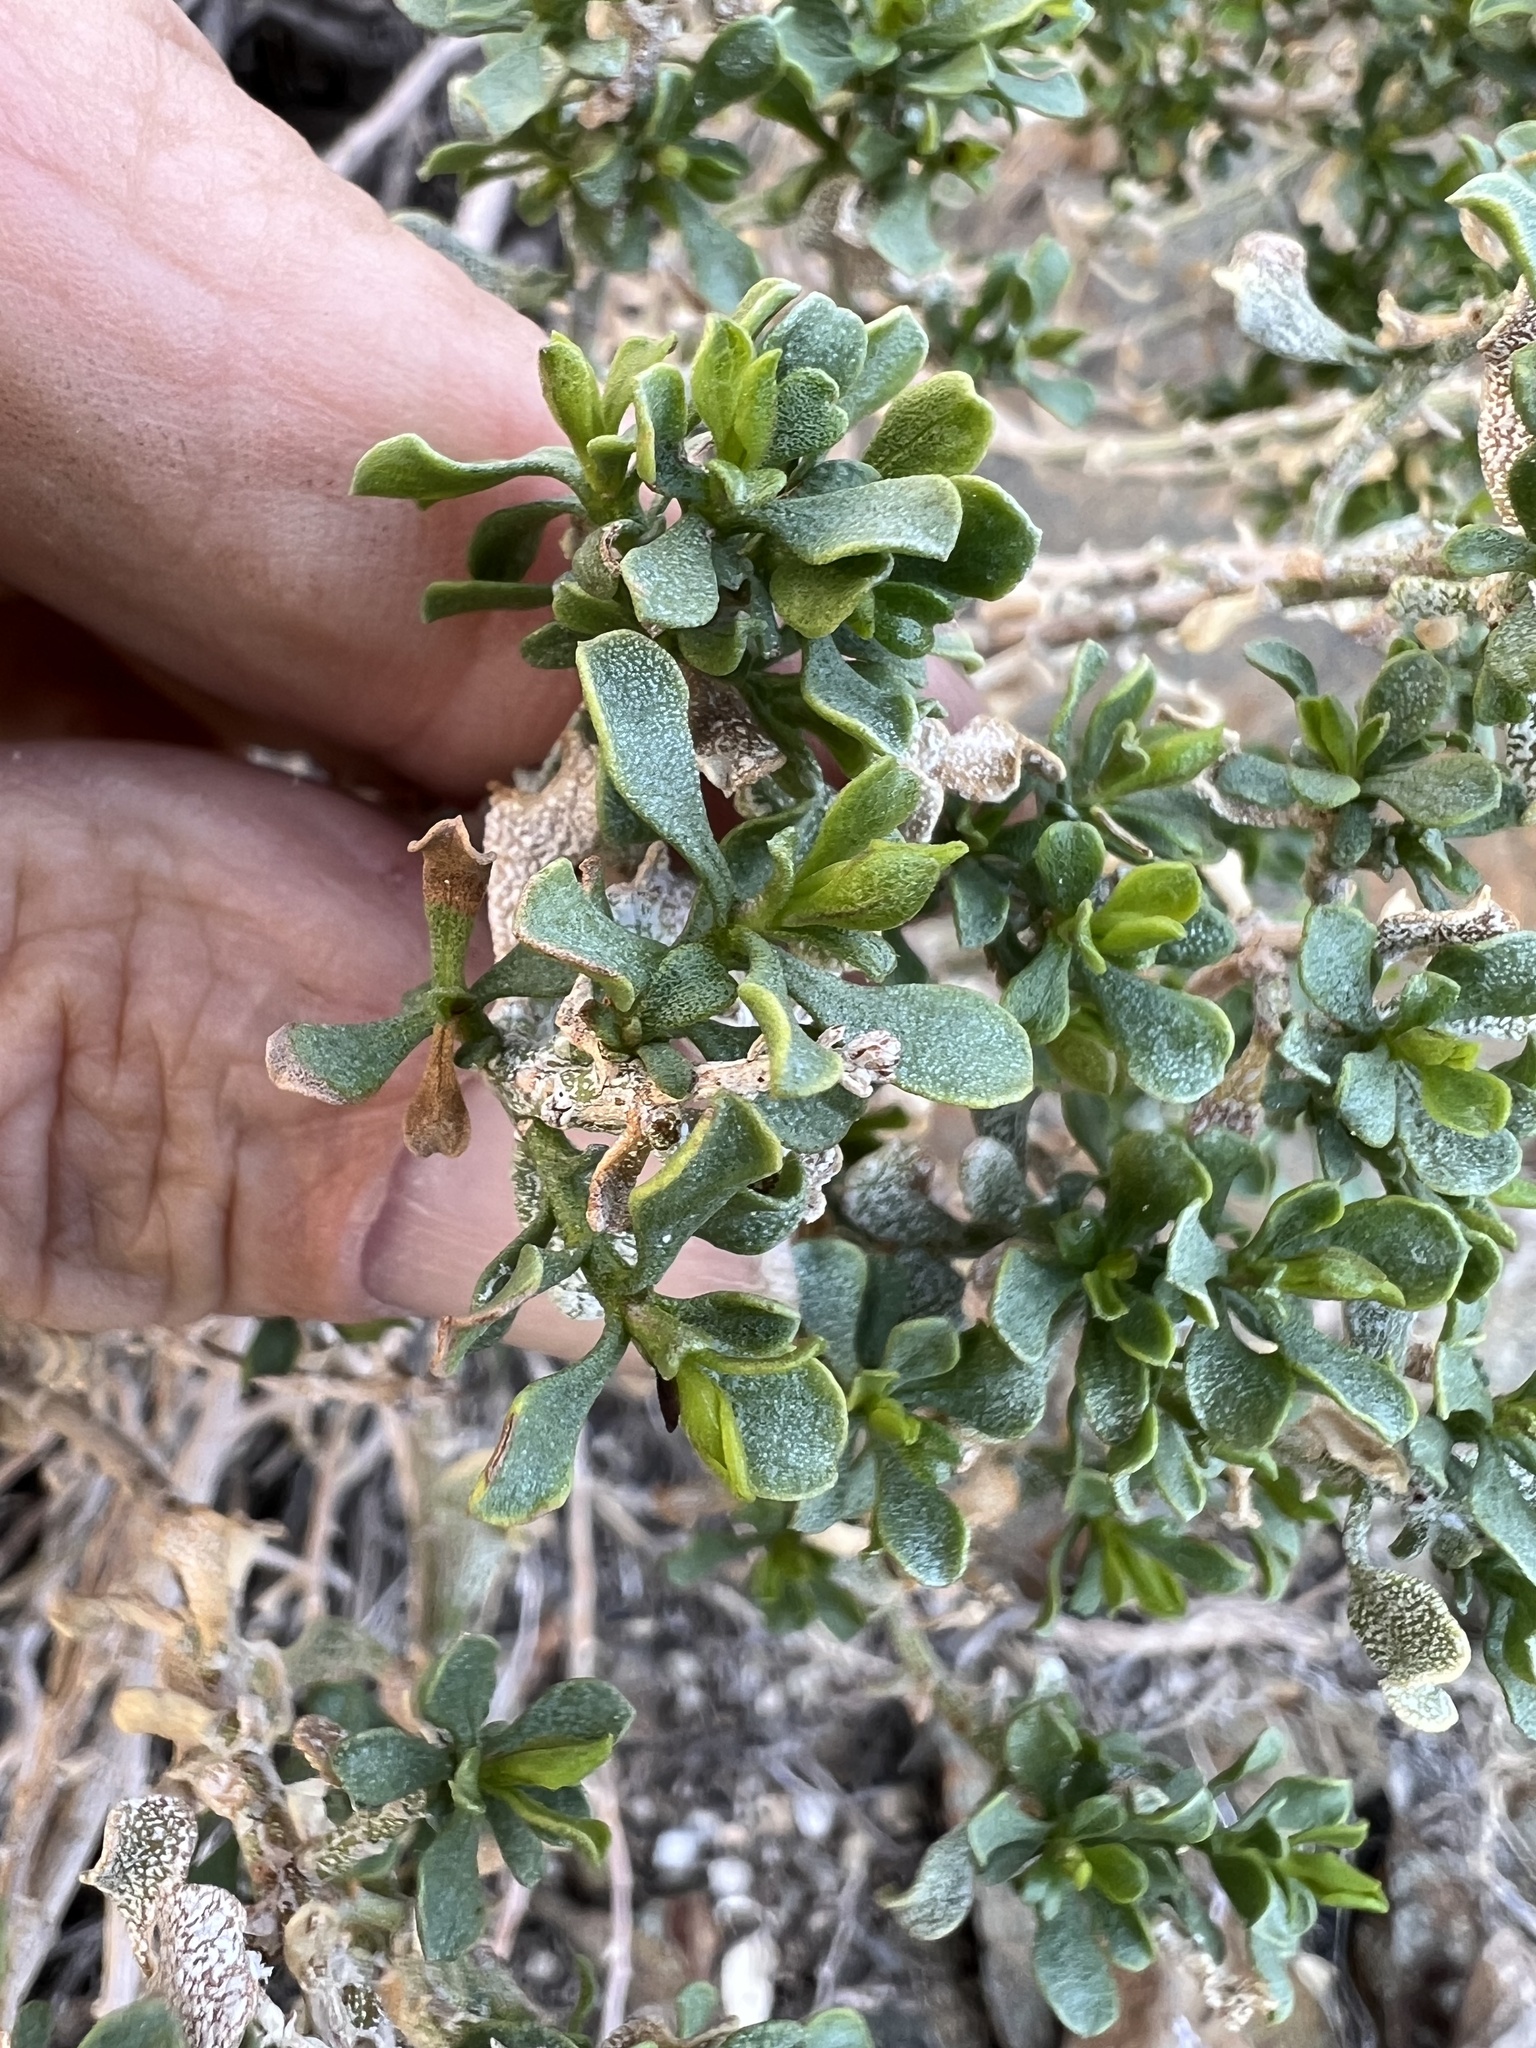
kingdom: Plantae
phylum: Tracheophyta
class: Magnoliopsida
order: Asterales
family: Asteraceae
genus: Ericameria
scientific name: Ericameria cuneata
